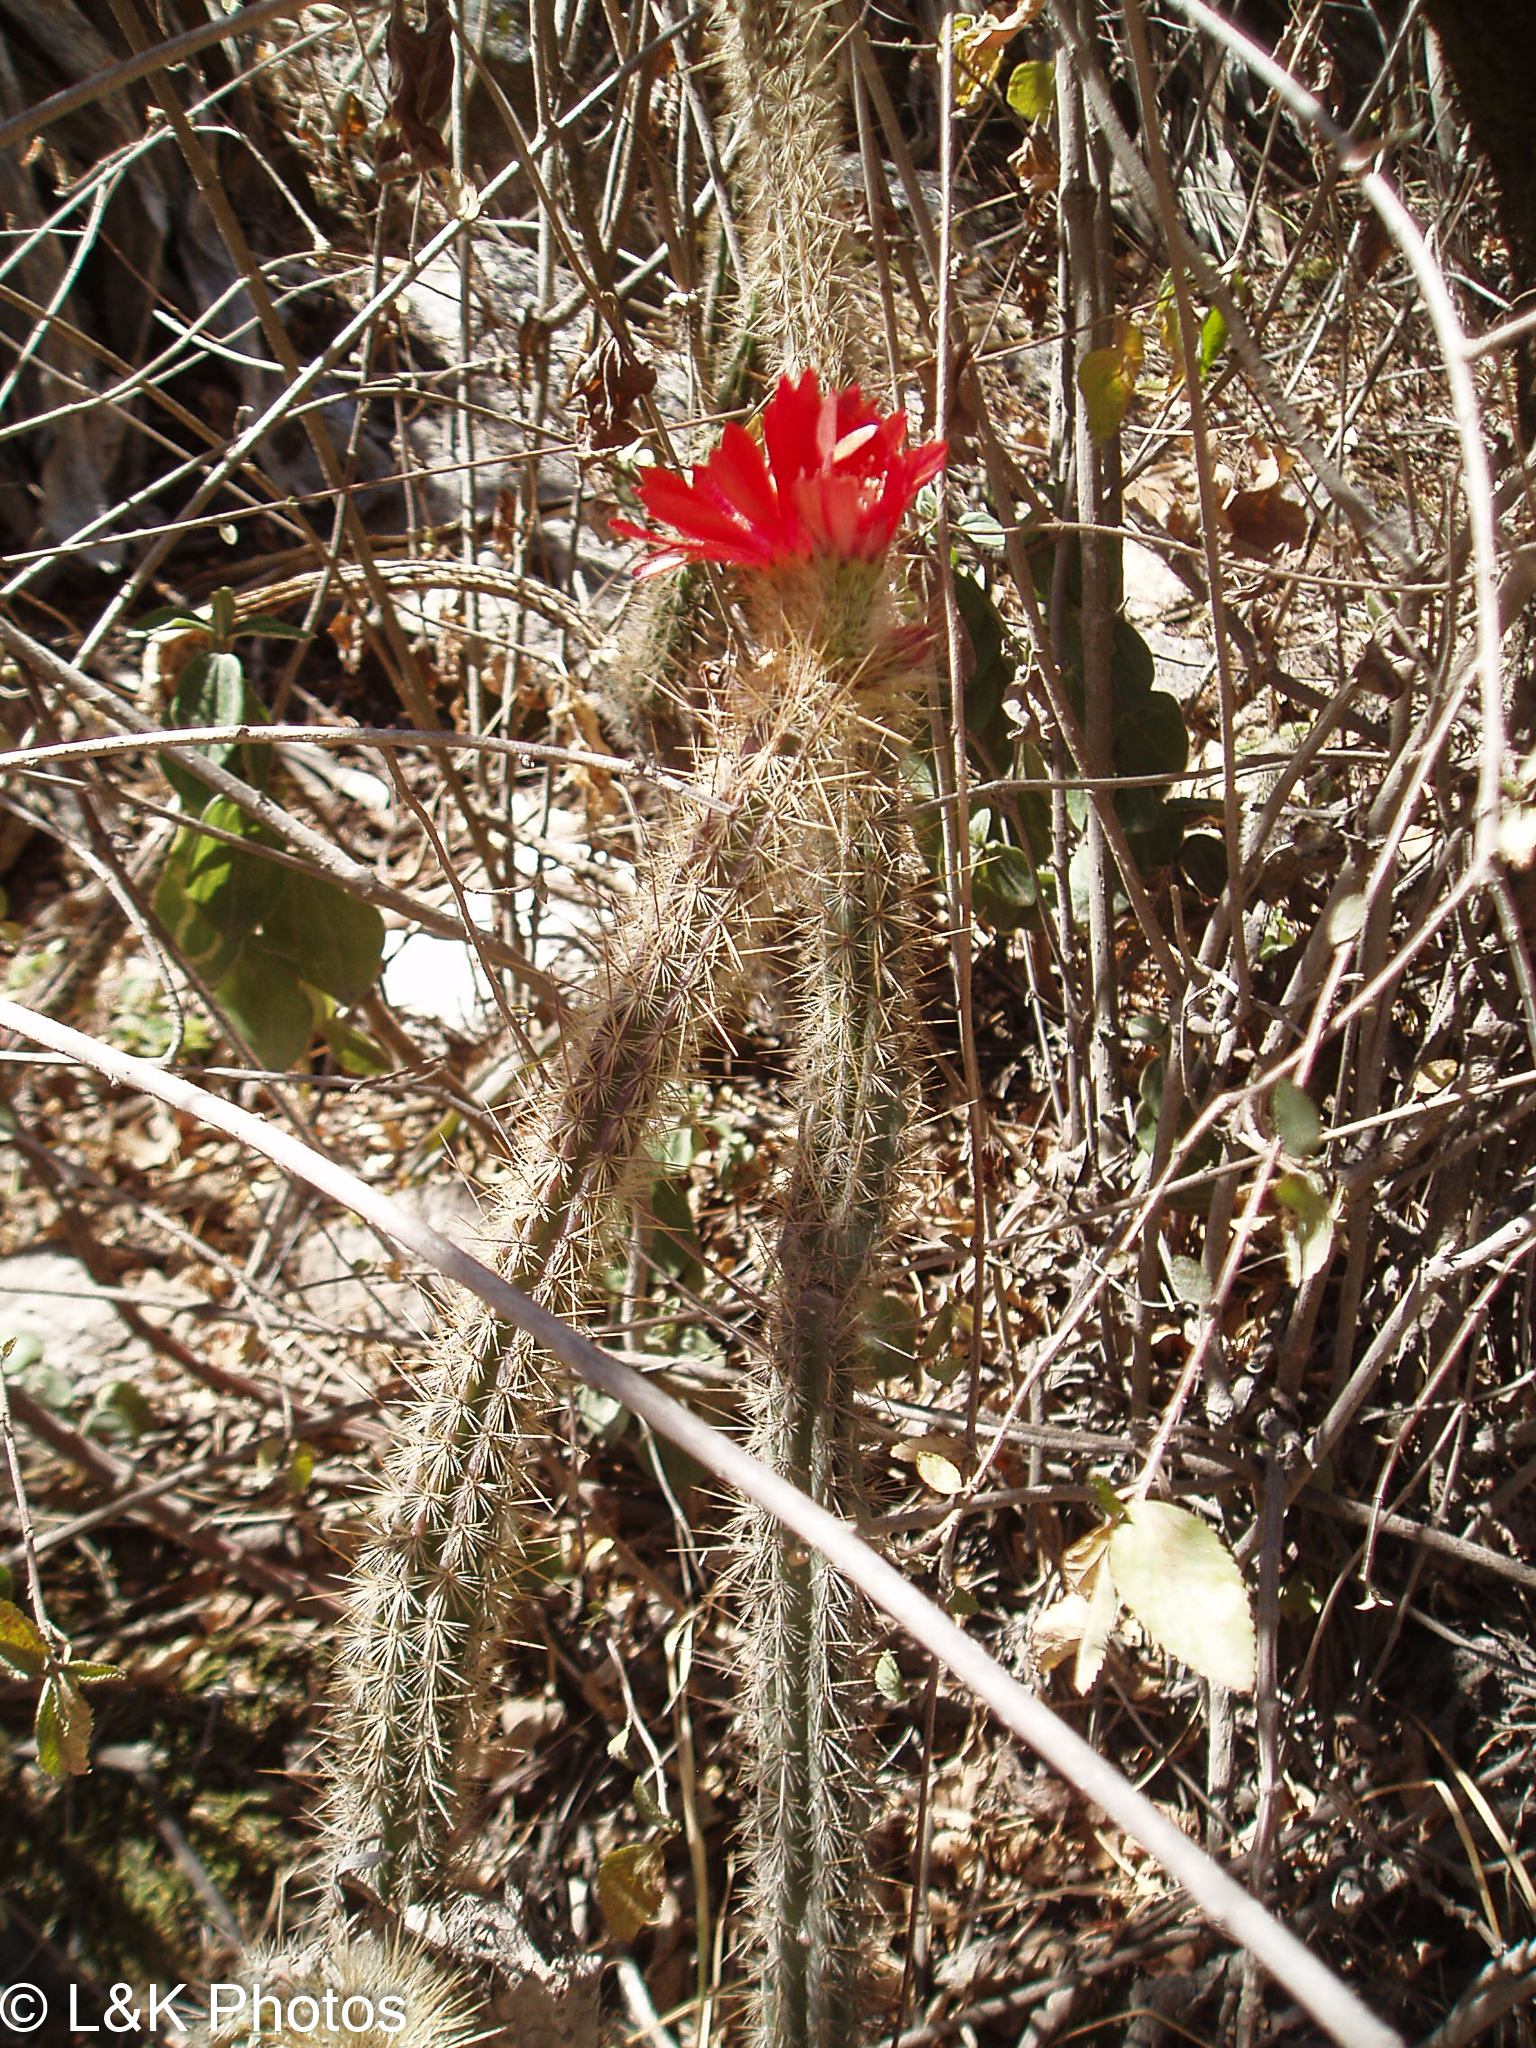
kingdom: Plantae
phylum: Tracheophyta
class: Magnoliopsida
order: Caryophyllales
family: Cactaceae
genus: Corryocactus
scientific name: Corryocactus erectus
